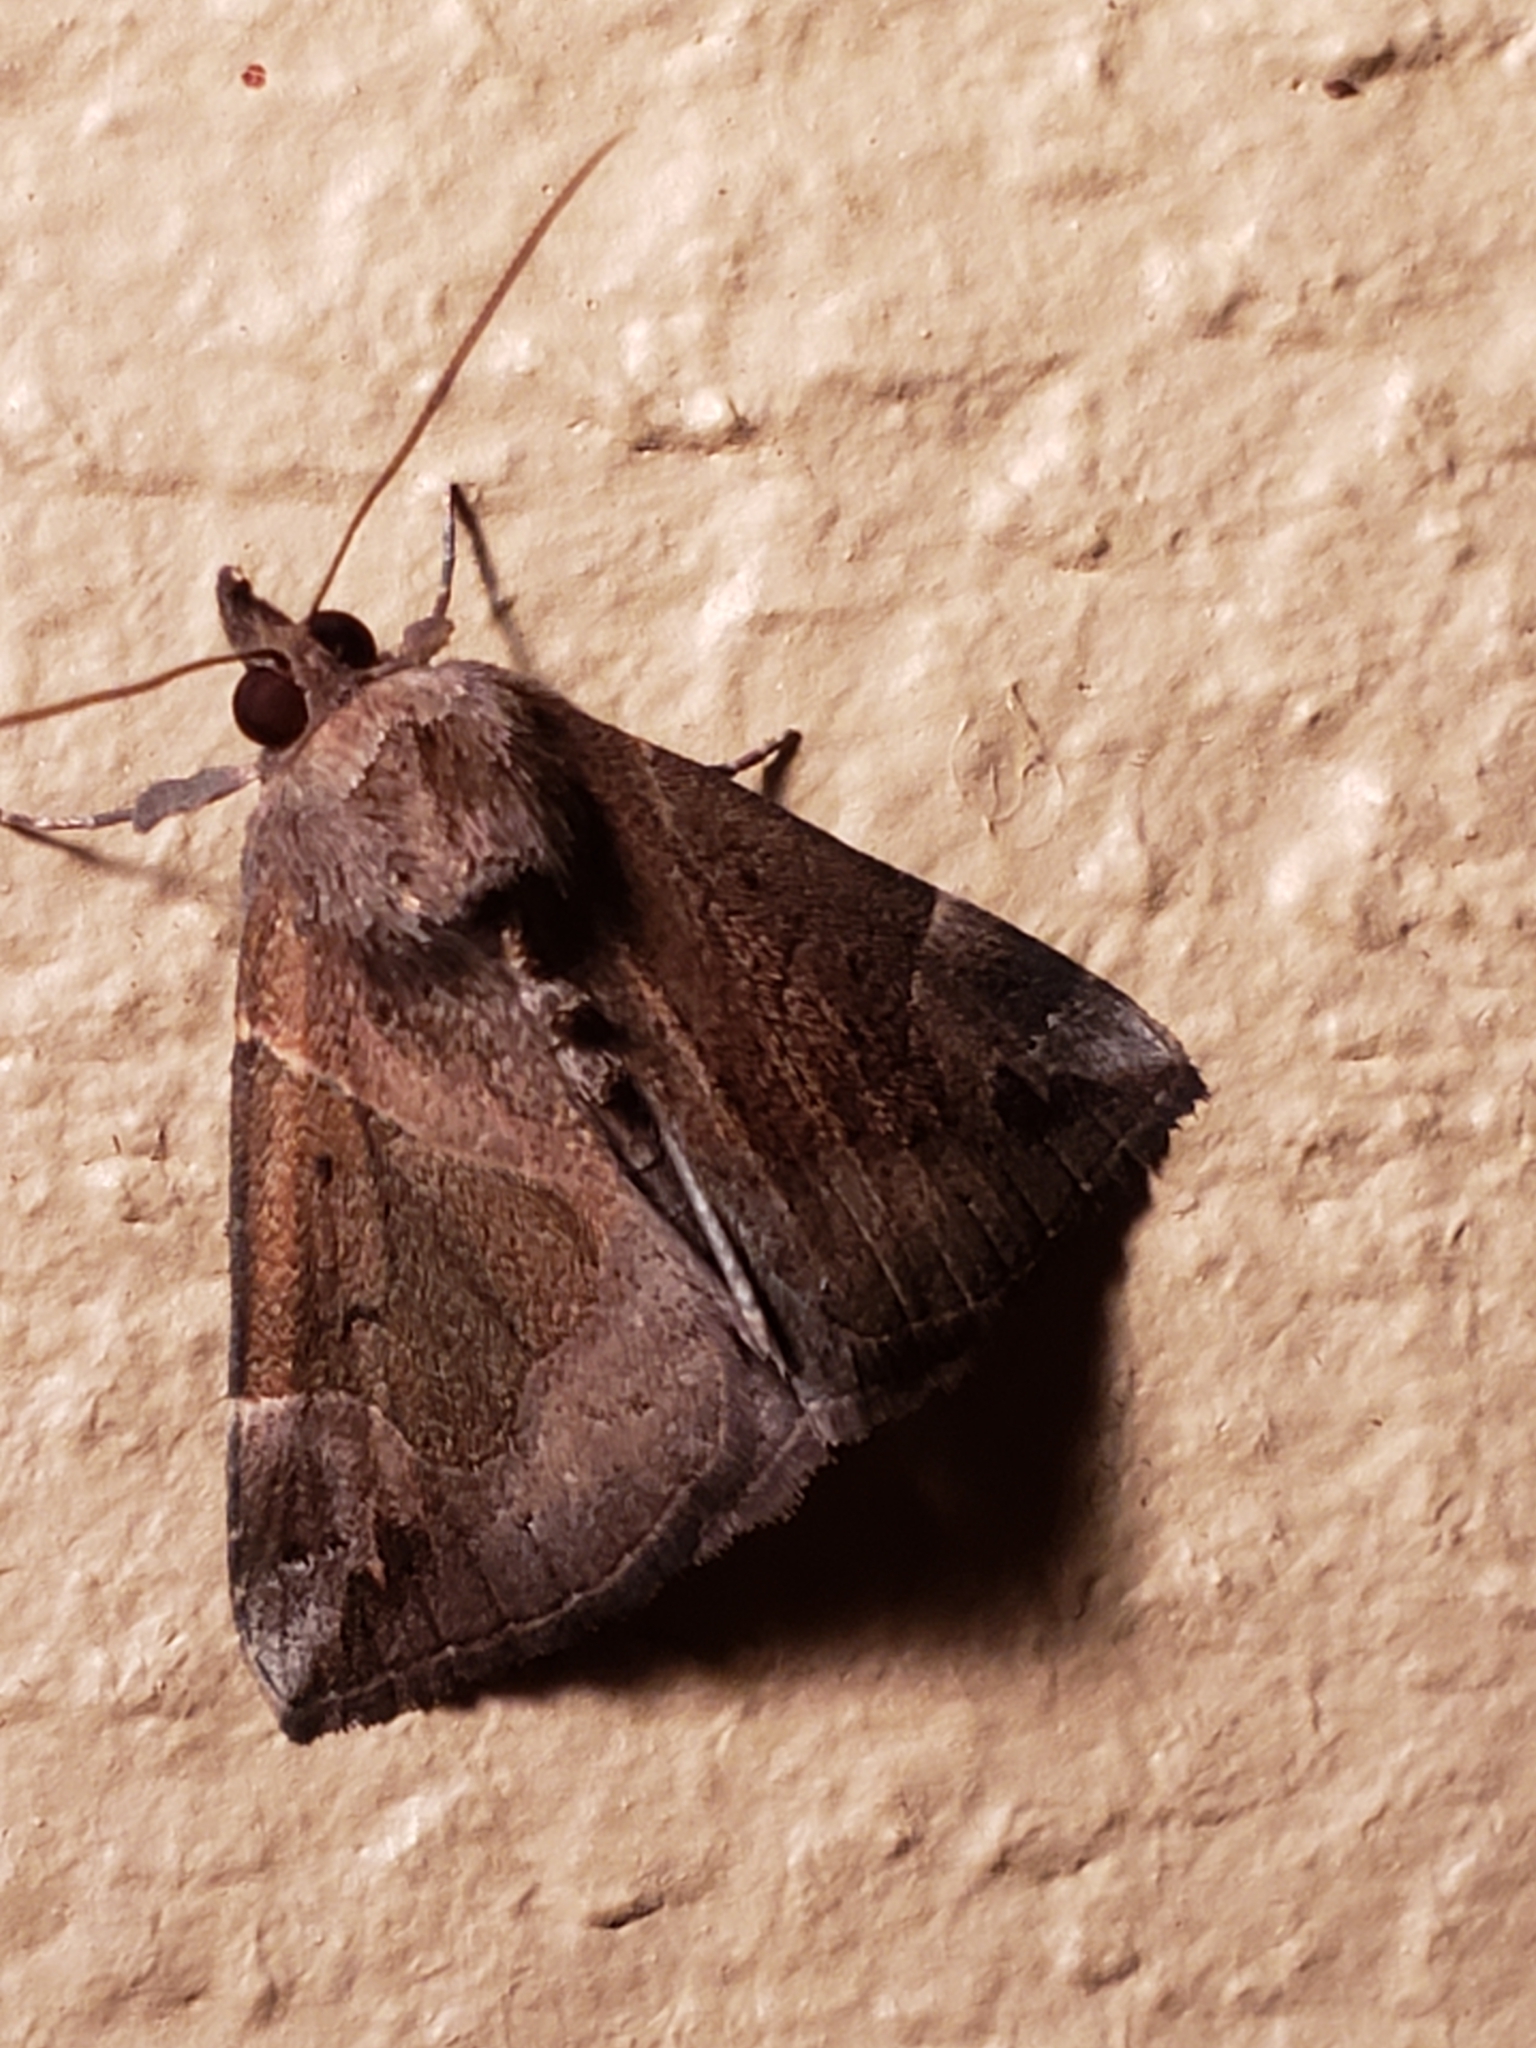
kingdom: Animalia
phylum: Arthropoda
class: Insecta
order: Lepidoptera
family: Erebidae
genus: Hypena
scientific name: Hypena manalis
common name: Flowing-line bomolocha moth
